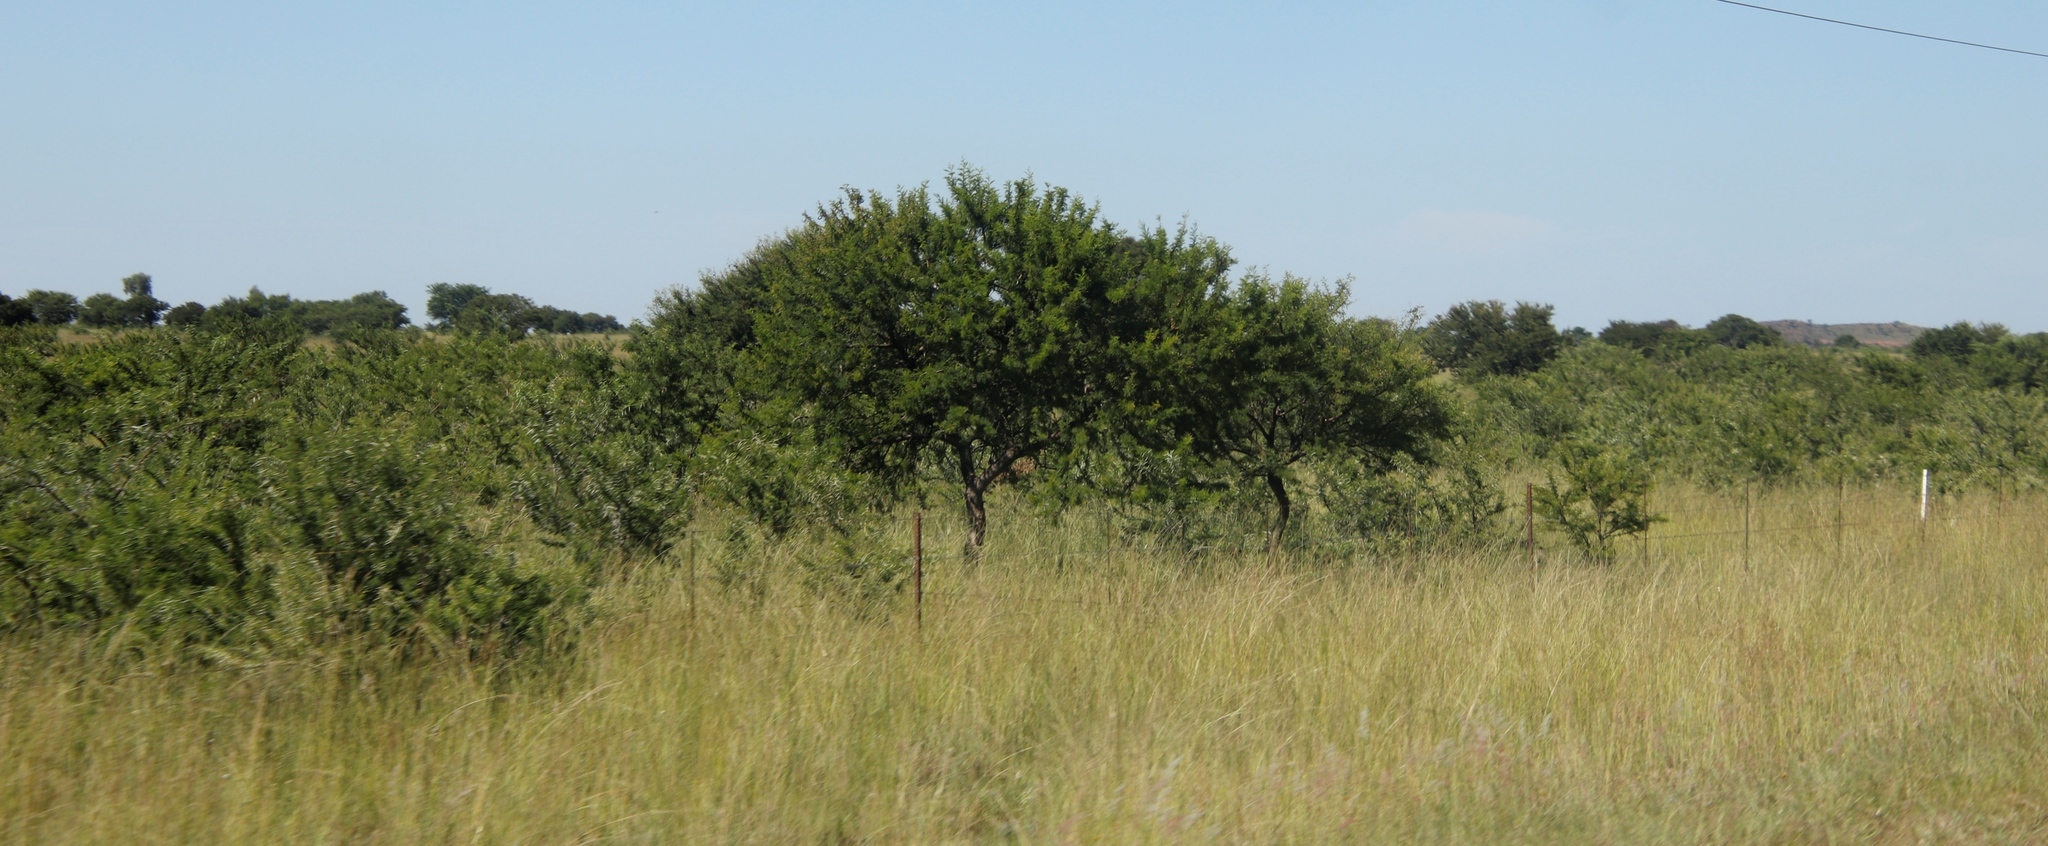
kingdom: Plantae
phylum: Tracheophyta
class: Magnoliopsida
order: Fabales
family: Fabaceae
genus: Vachellia
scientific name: Vachellia karroo
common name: Sweet thorn
